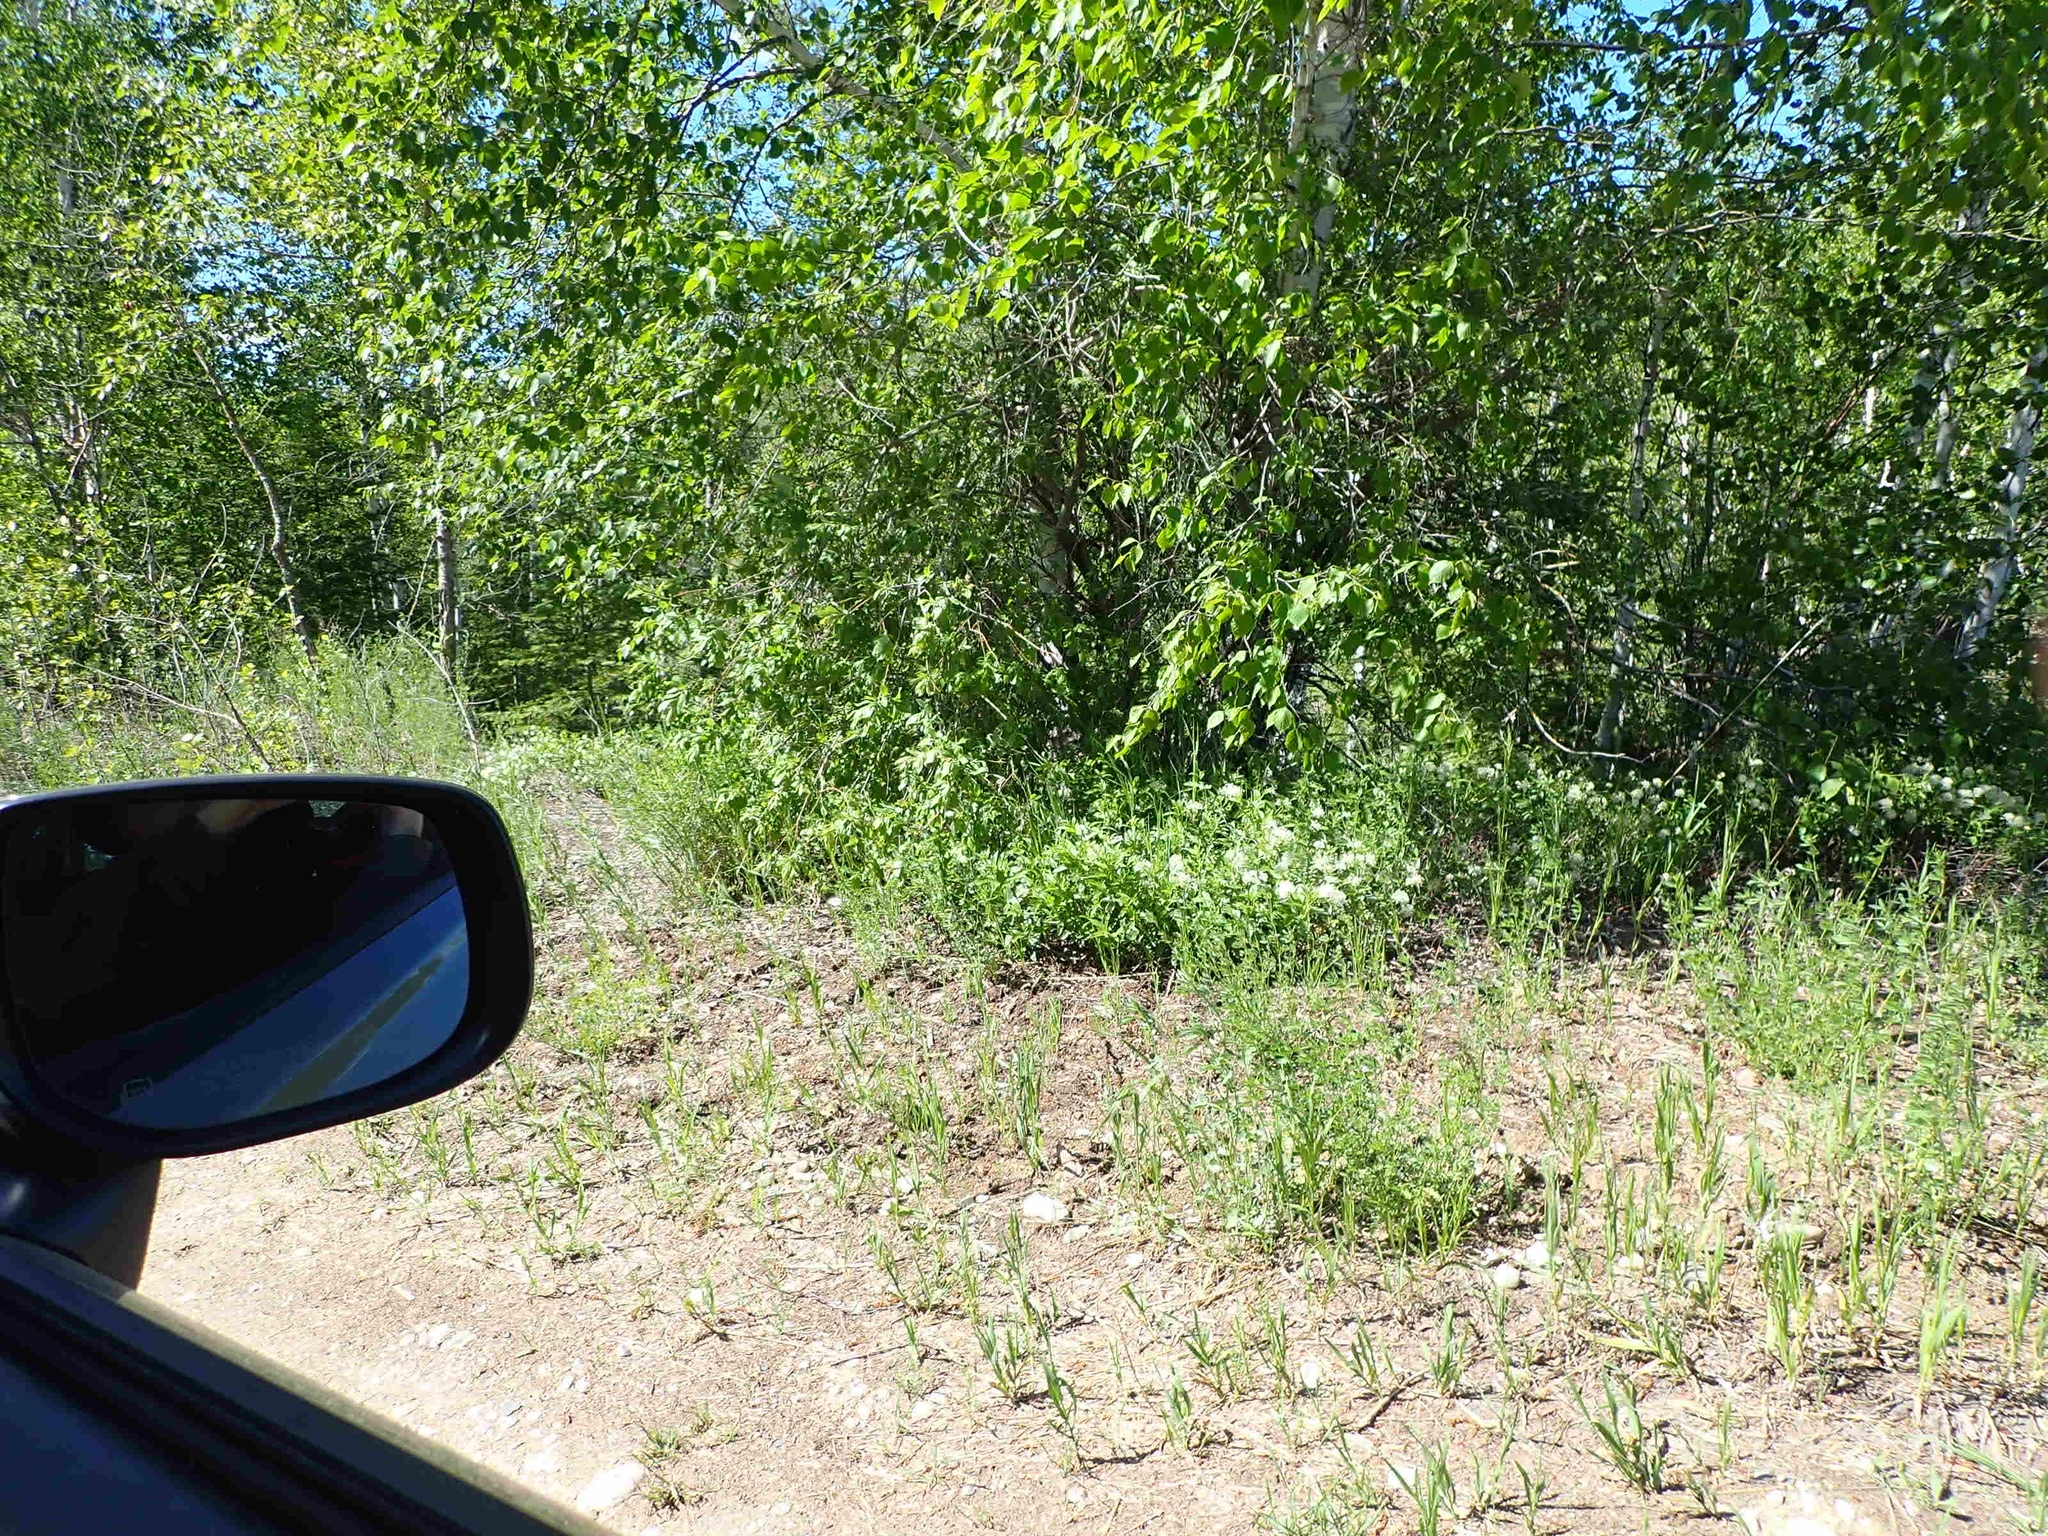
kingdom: Plantae
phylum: Tracheophyta
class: Magnoliopsida
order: Rosales
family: Rhamnaceae
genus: Ceanothus
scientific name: Ceanothus herbaceus
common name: Inland ceanothus
